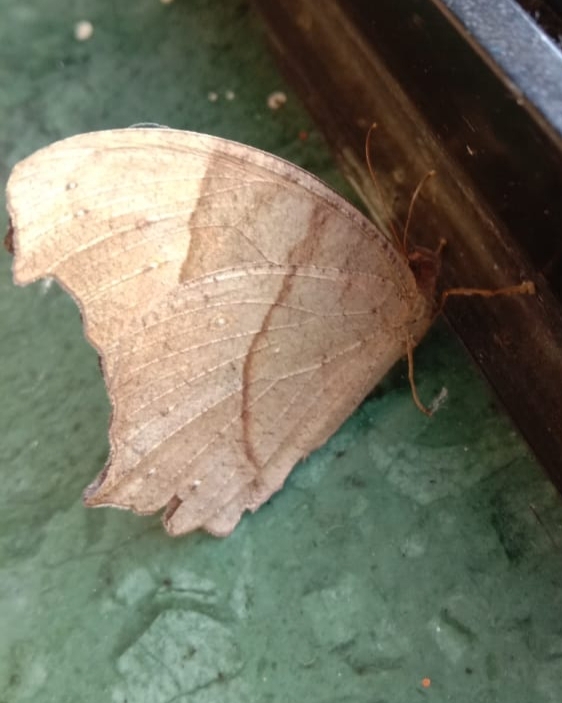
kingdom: Animalia
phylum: Arthropoda
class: Insecta
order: Lepidoptera
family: Nymphalidae
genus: Melanitis
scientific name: Melanitis leda
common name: Twilight brown
